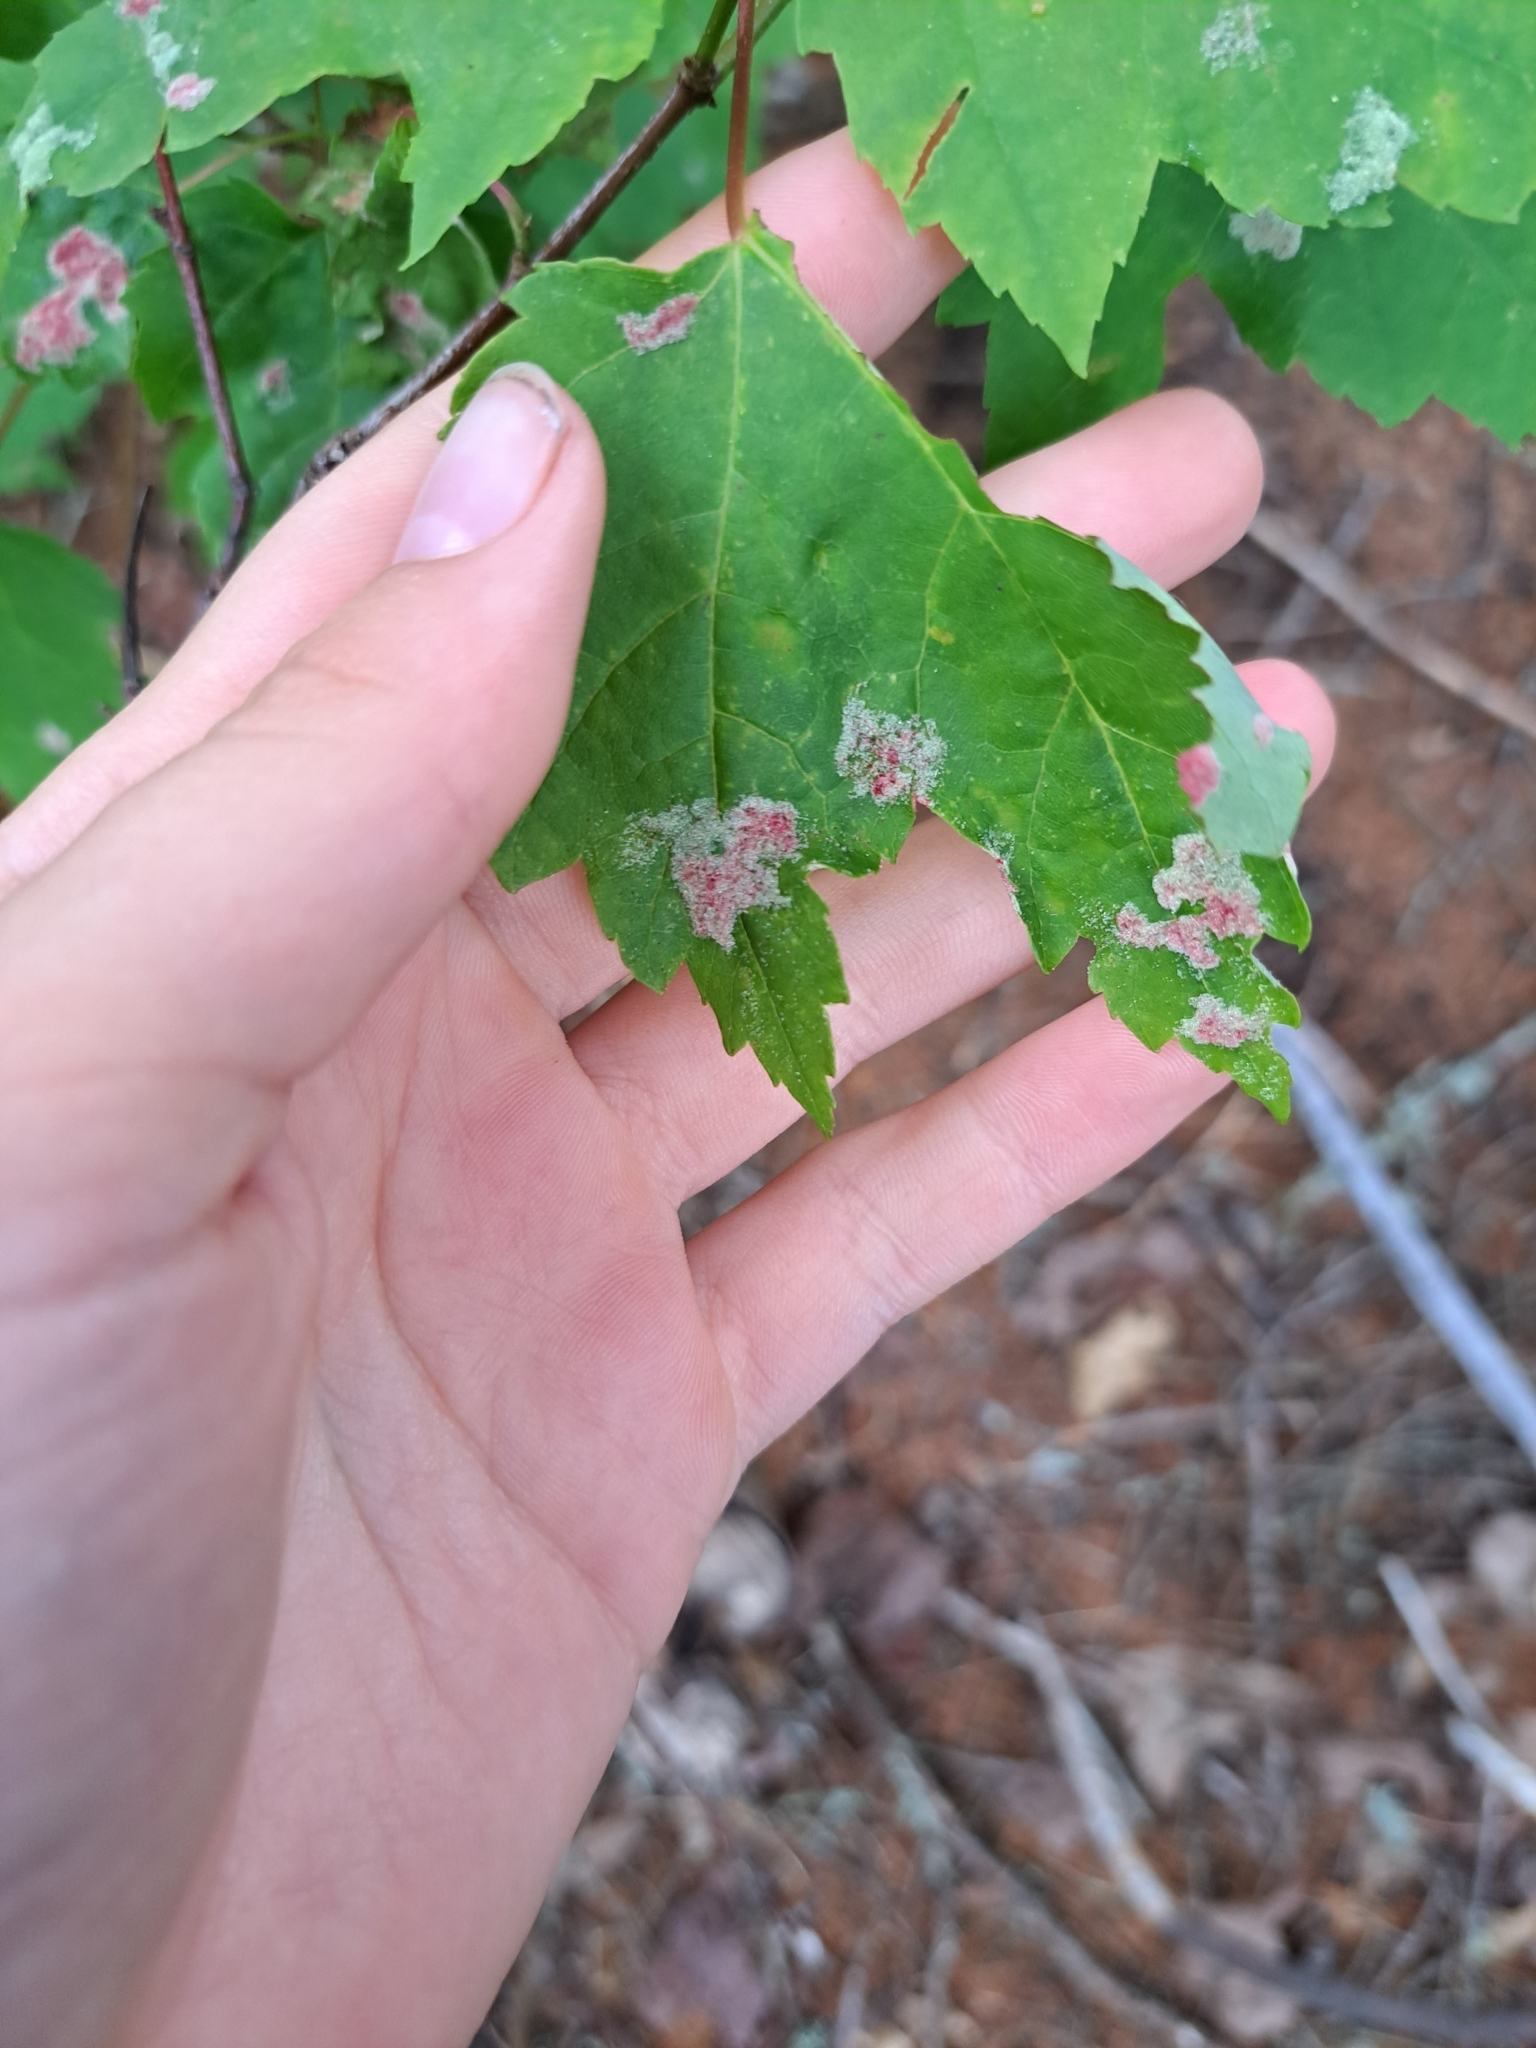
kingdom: Animalia
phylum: Arthropoda
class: Arachnida
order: Trombidiformes
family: Eriophyidae
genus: Aculus
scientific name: Aculus
